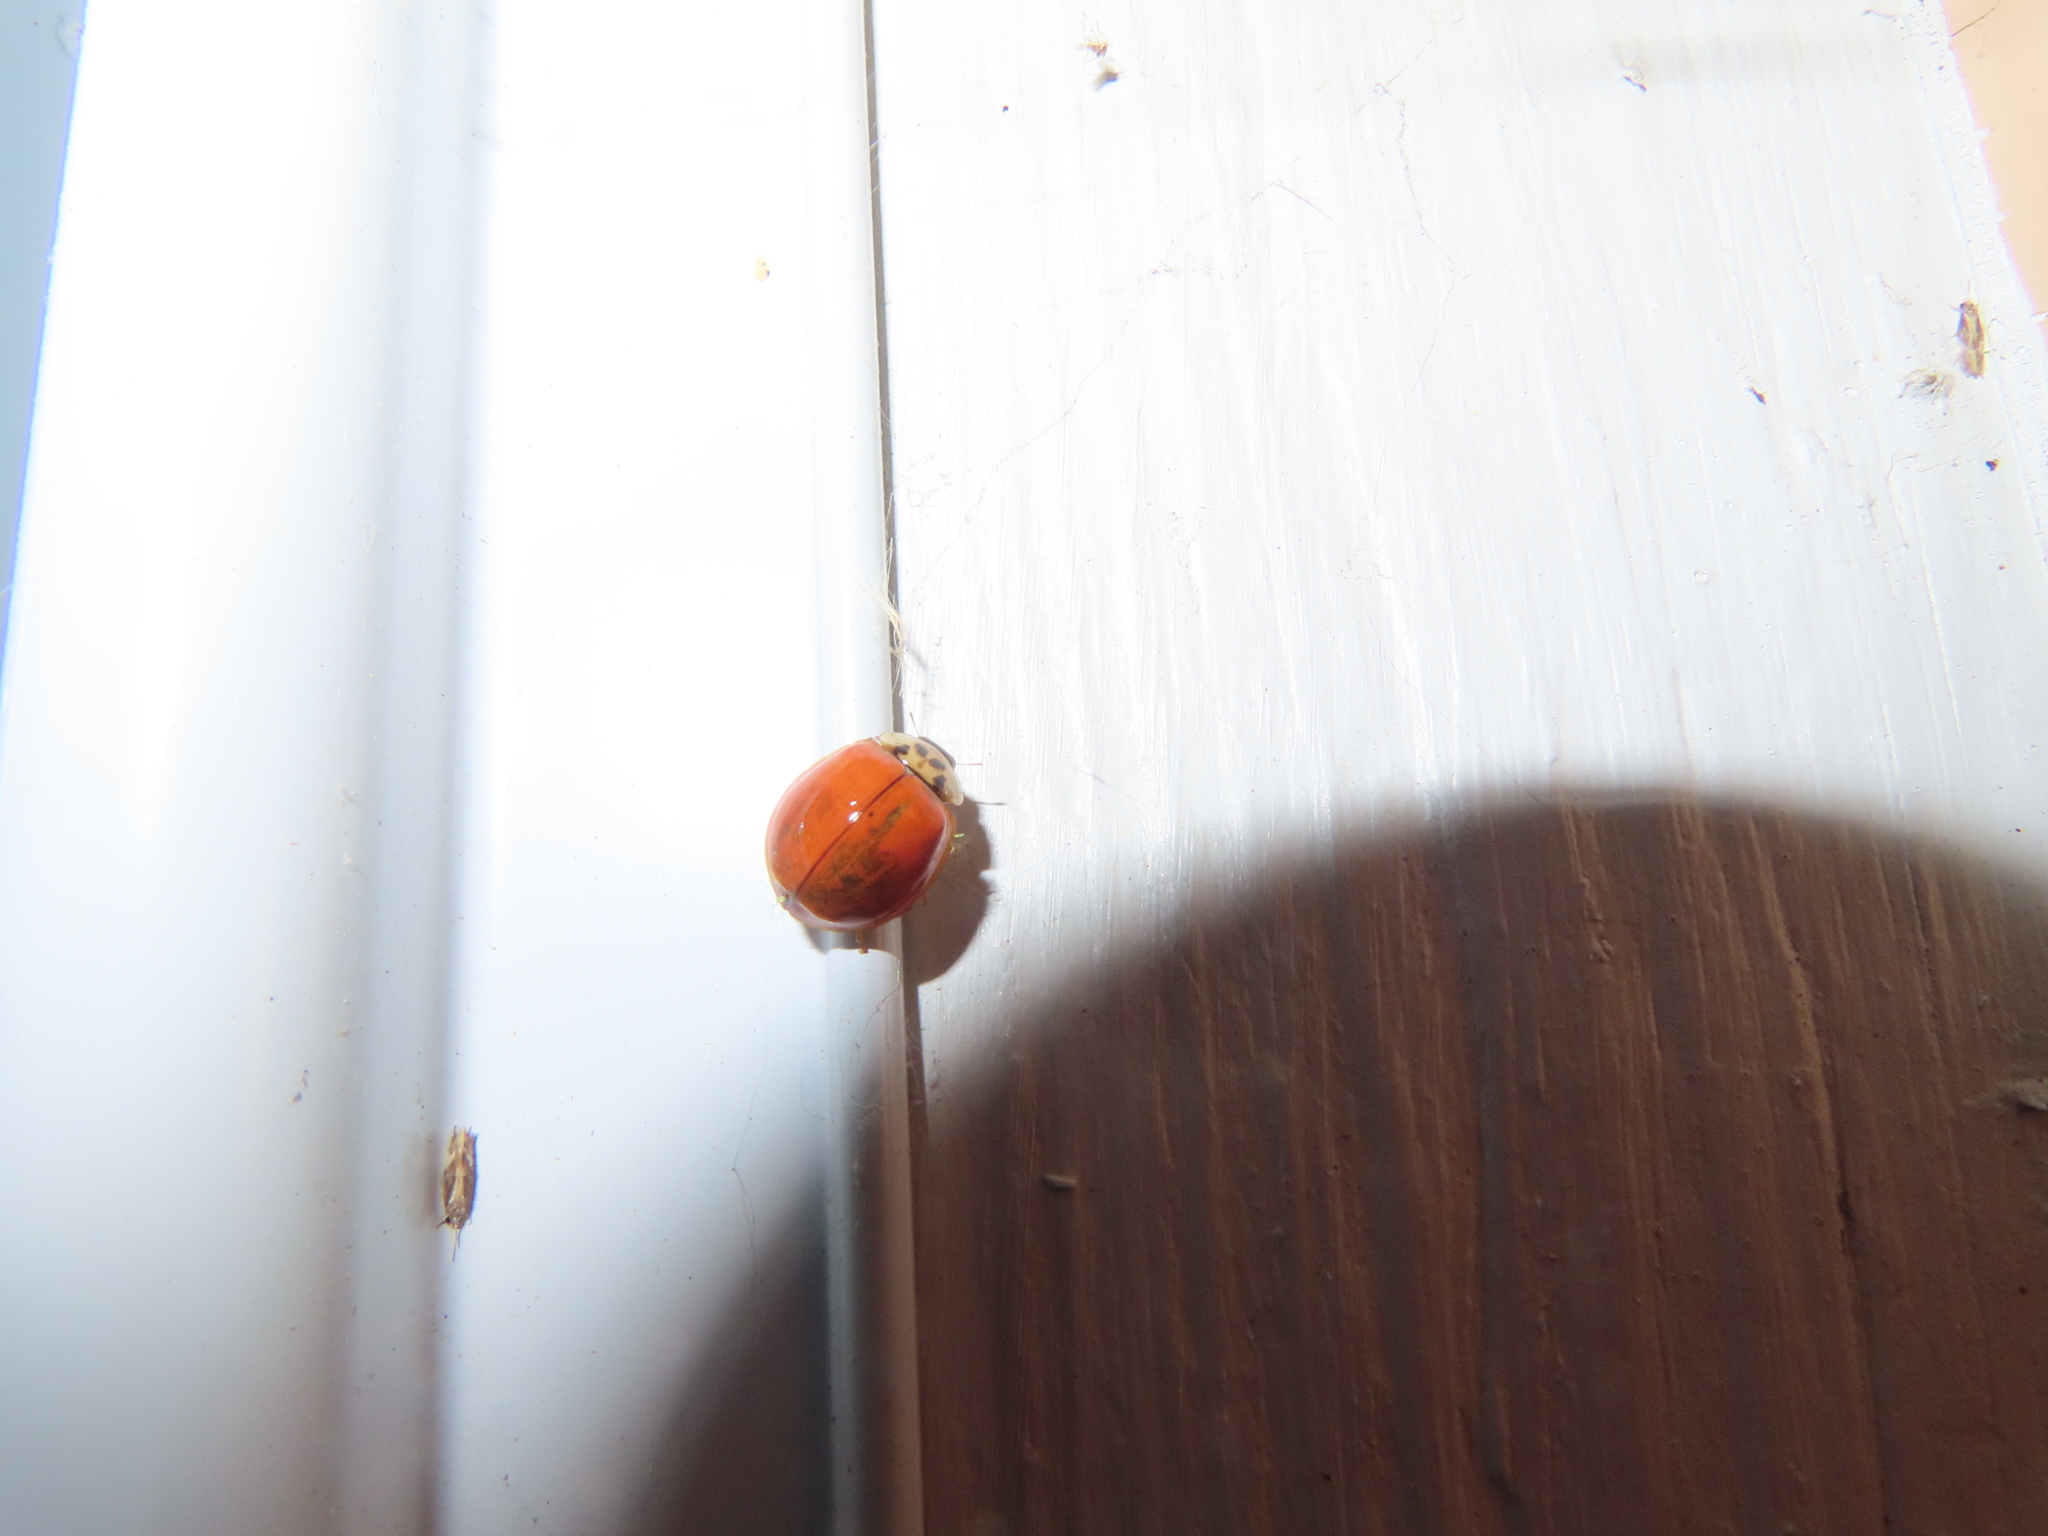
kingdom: Animalia
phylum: Arthropoda
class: Insecta
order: Coleoptera
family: Coccinellidae
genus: Harmonia
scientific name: Harmonia axyridis
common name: Harlequin ladybird
